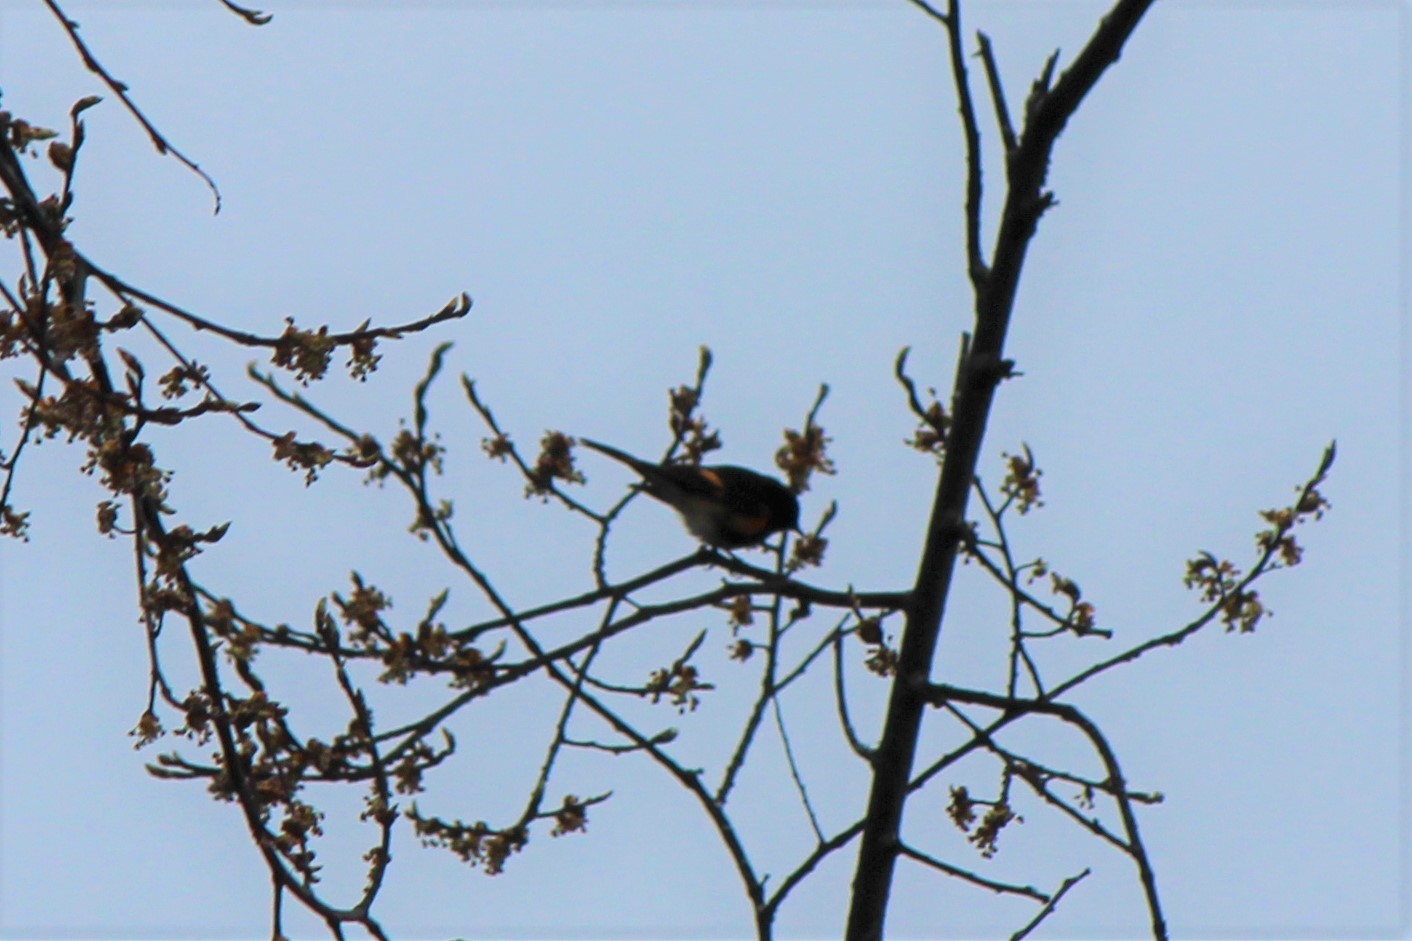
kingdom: Animalia
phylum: Chordata
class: Aves
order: Passeriformes
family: Parulidae
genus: Setophaga
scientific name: Setophaga ruticilla
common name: American redstart
